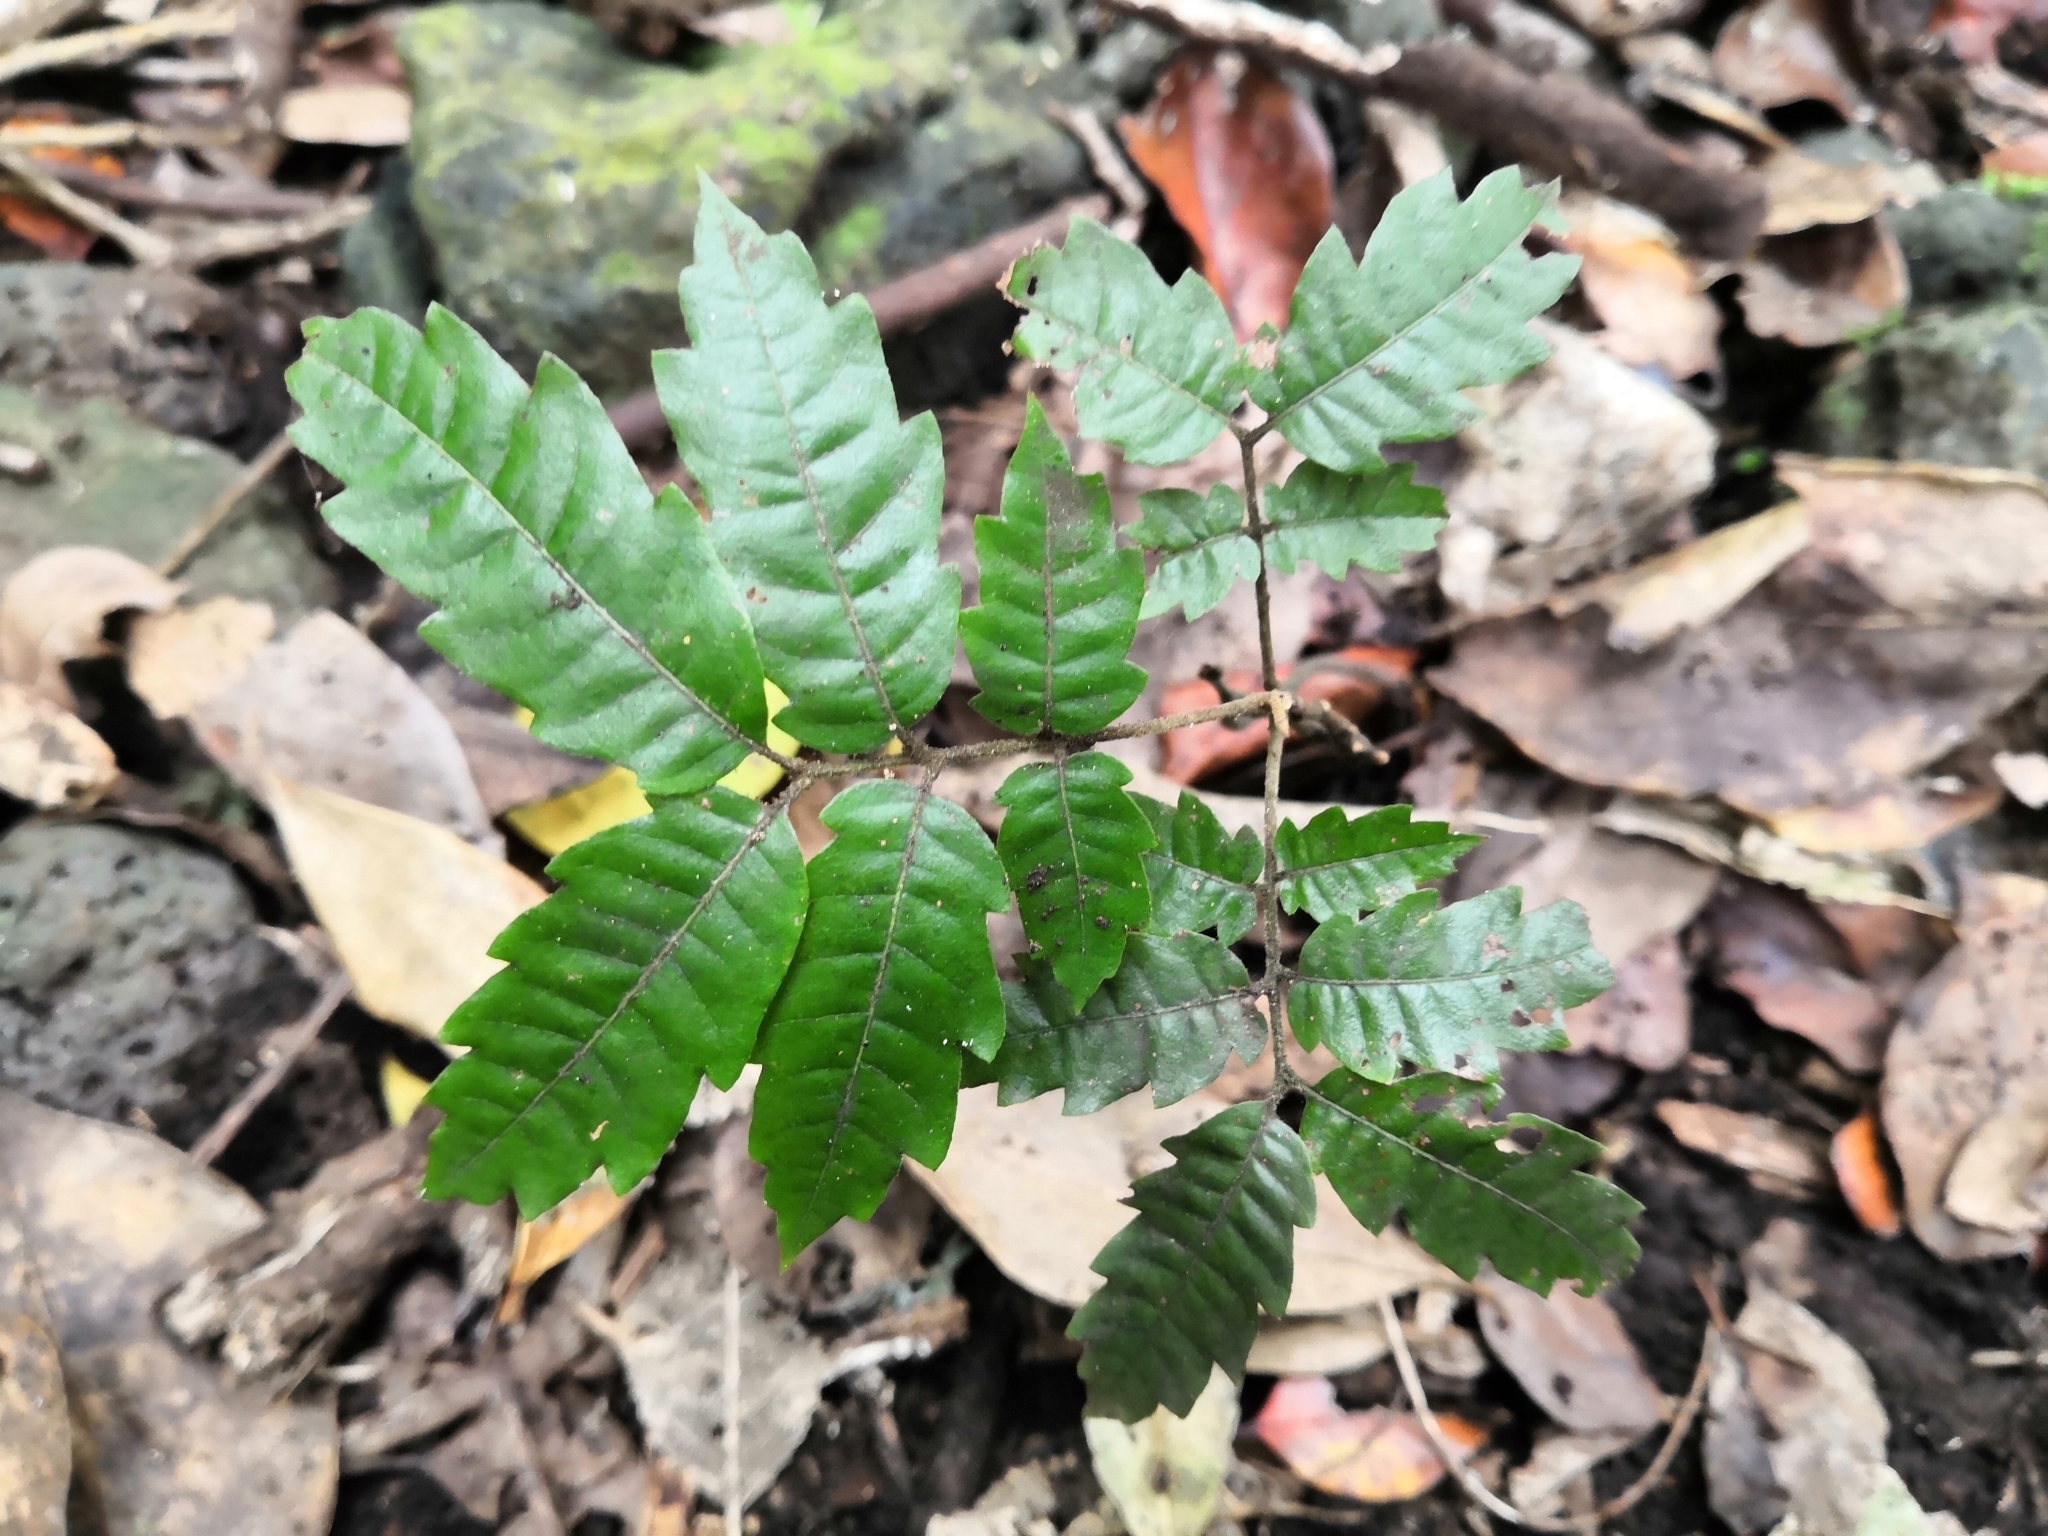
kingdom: Plantae
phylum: Tracheophyta
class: Magnoliopsida
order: Sapindales
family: Sapindaceae
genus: Alectryon
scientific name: Alectryon excelsus
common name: Three kings titoki
